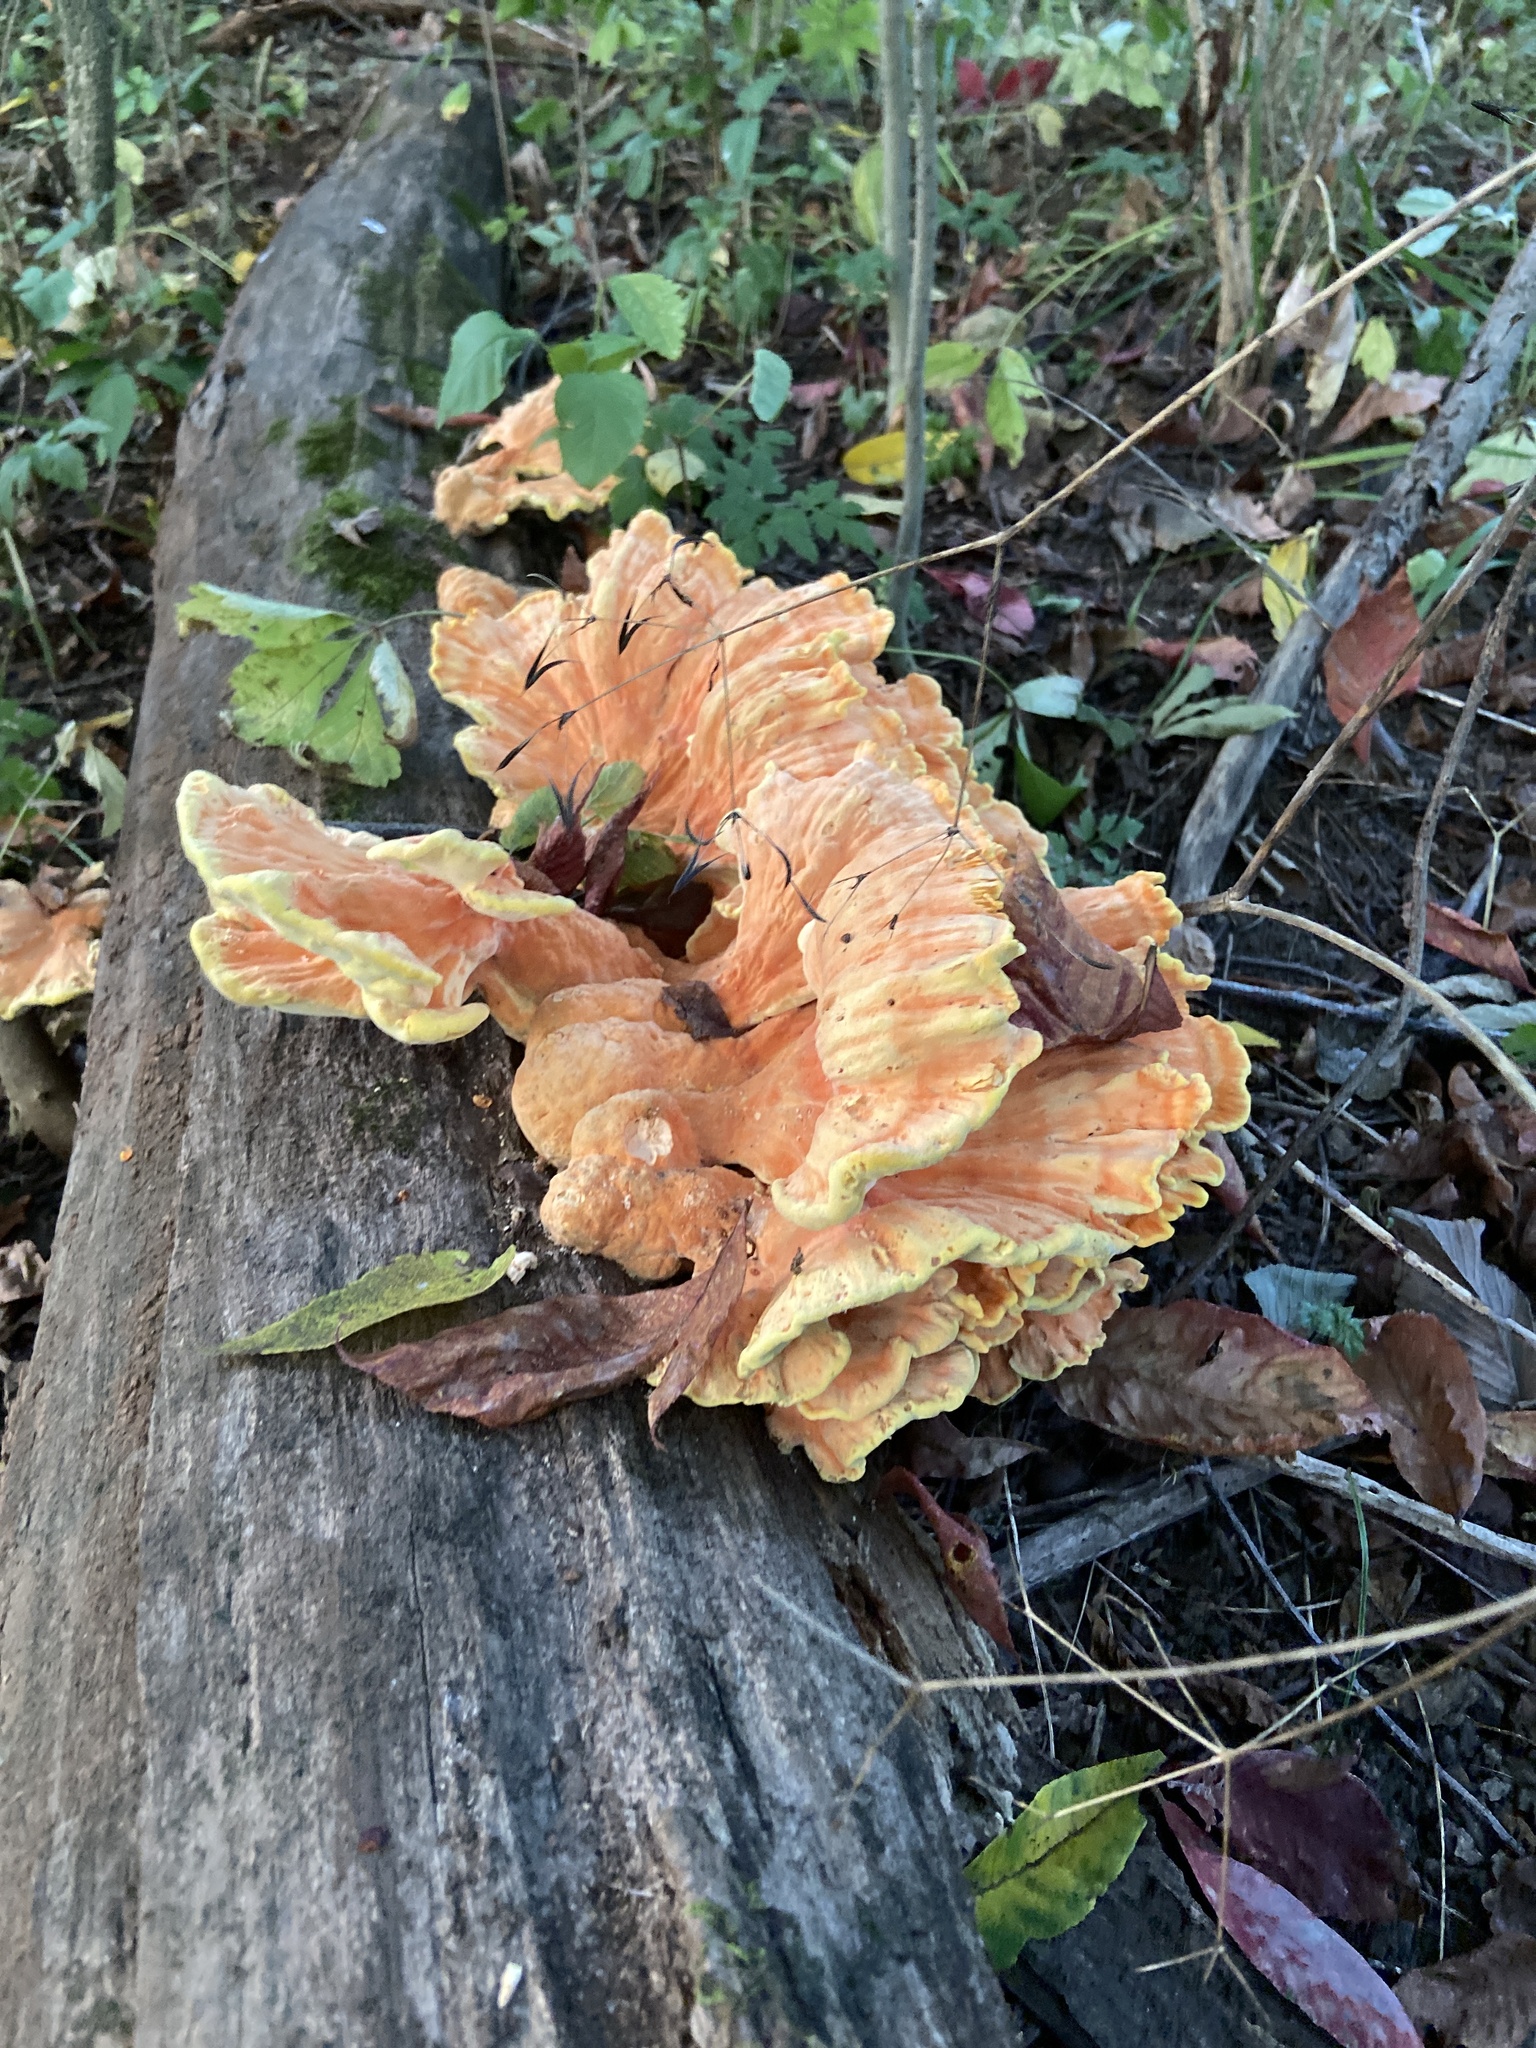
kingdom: Fungi
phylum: Basidiomycota
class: Agaricomycetes
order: Polyporales
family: Laetiporaceae
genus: Laetiporus
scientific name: Laetiporus sulphureus
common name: Chicken of the woods
